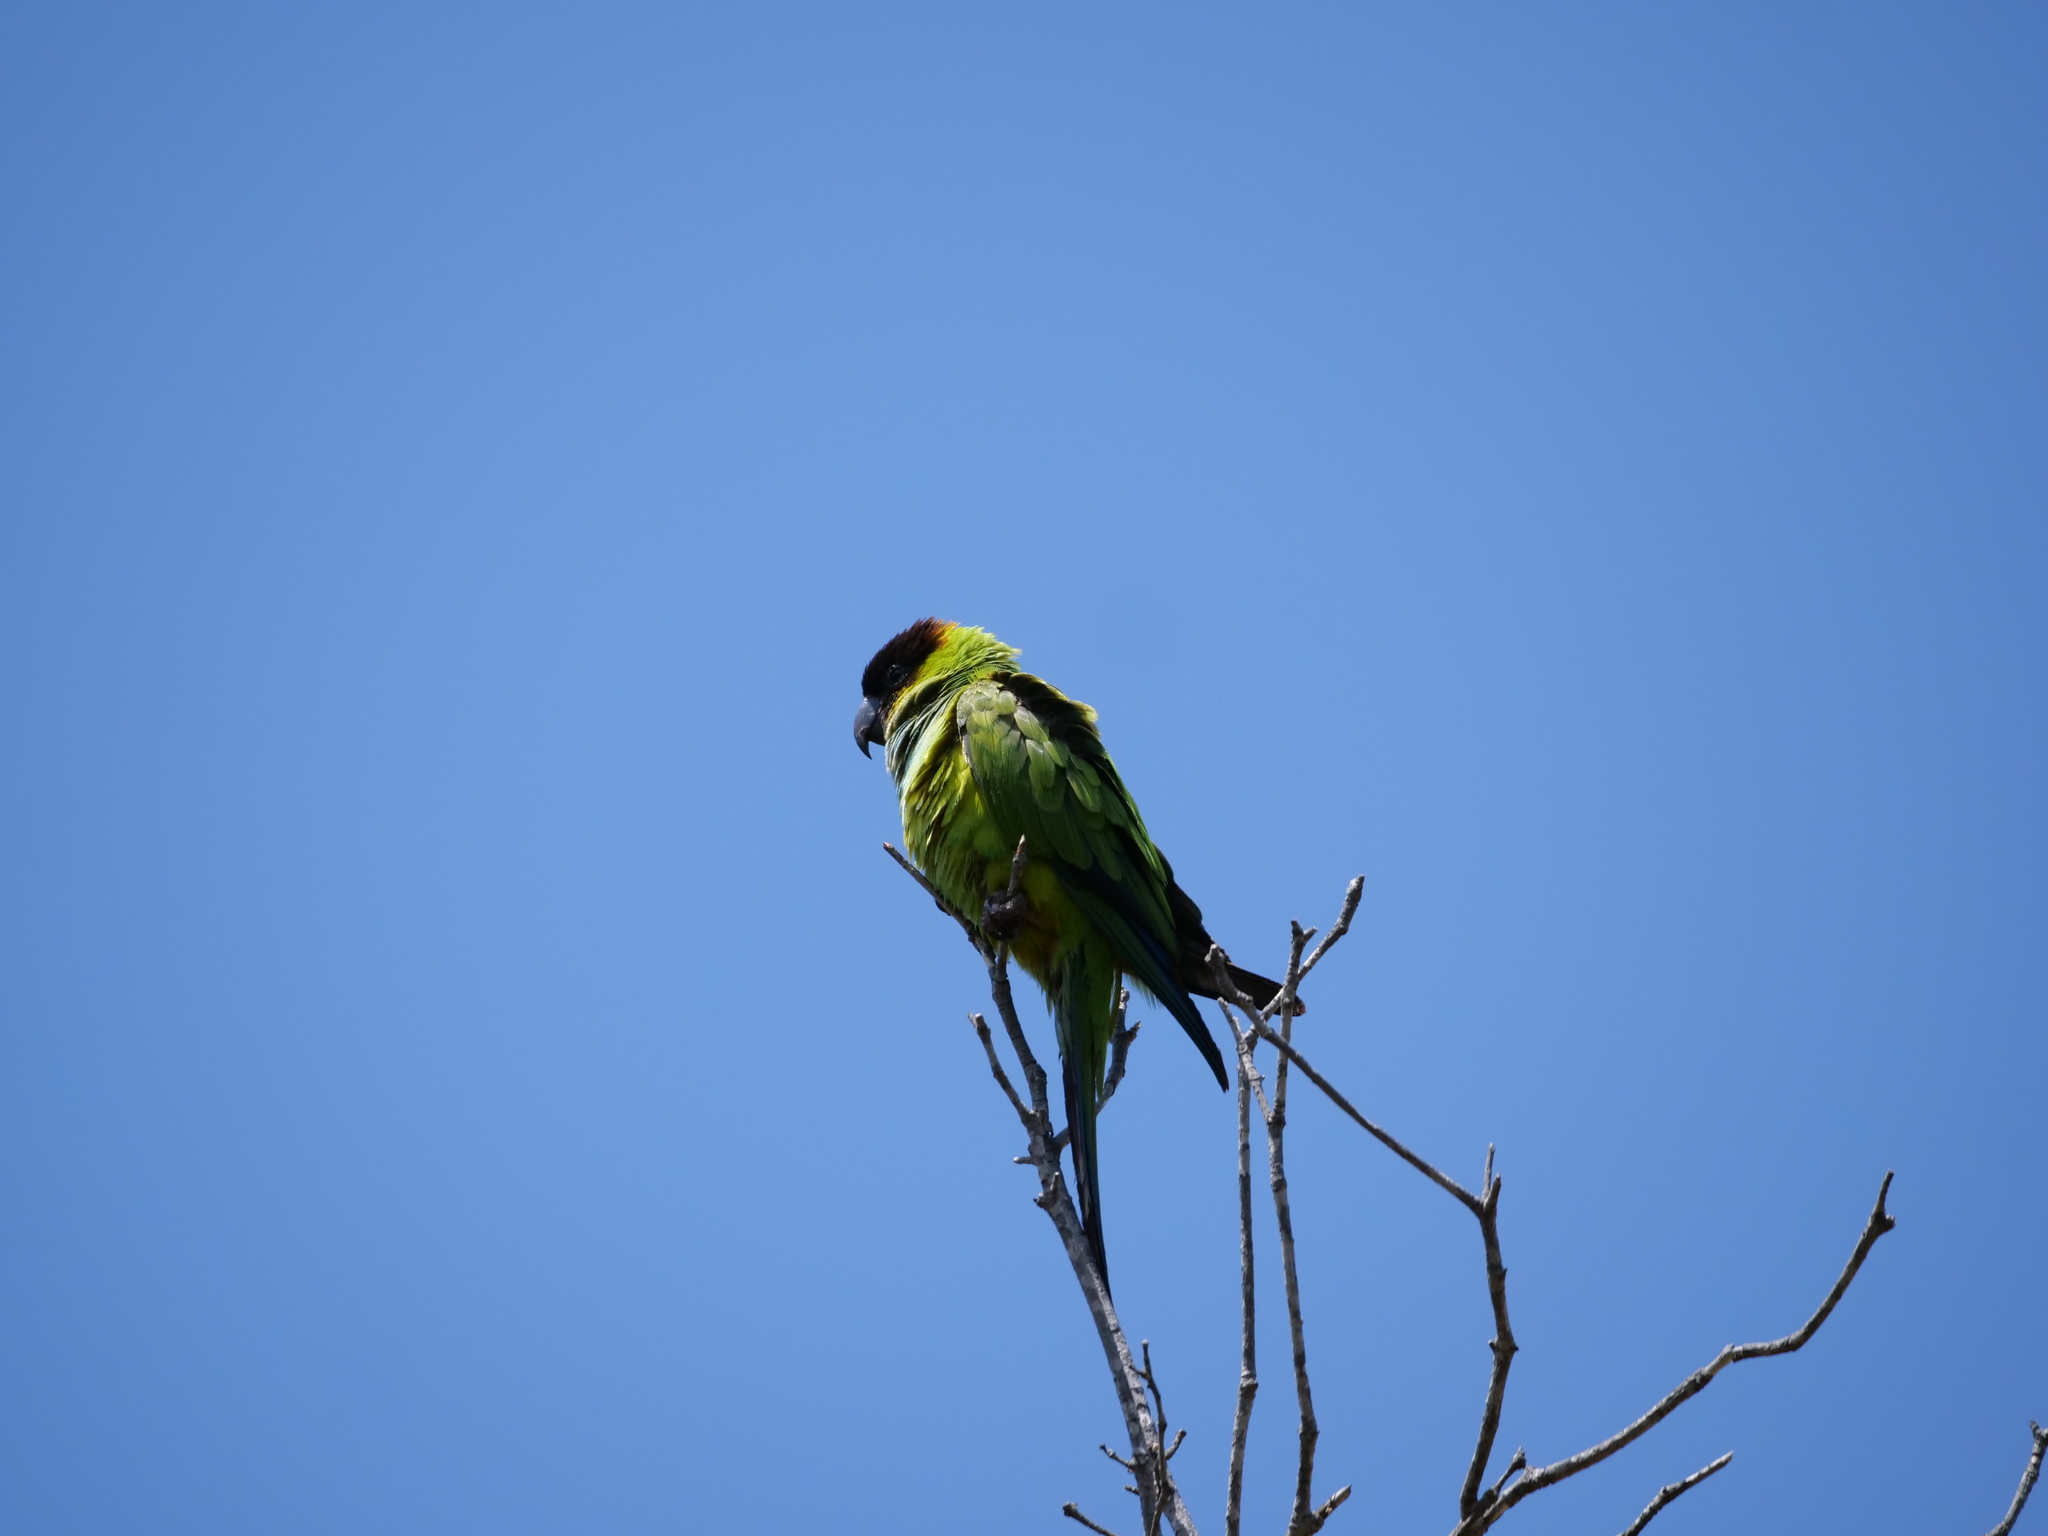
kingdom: Animalia
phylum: Chordata
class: Aves
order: Psittaciformes
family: Psittacidae
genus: Nandayus
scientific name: Nandayus nenday
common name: Nanday parakeet
